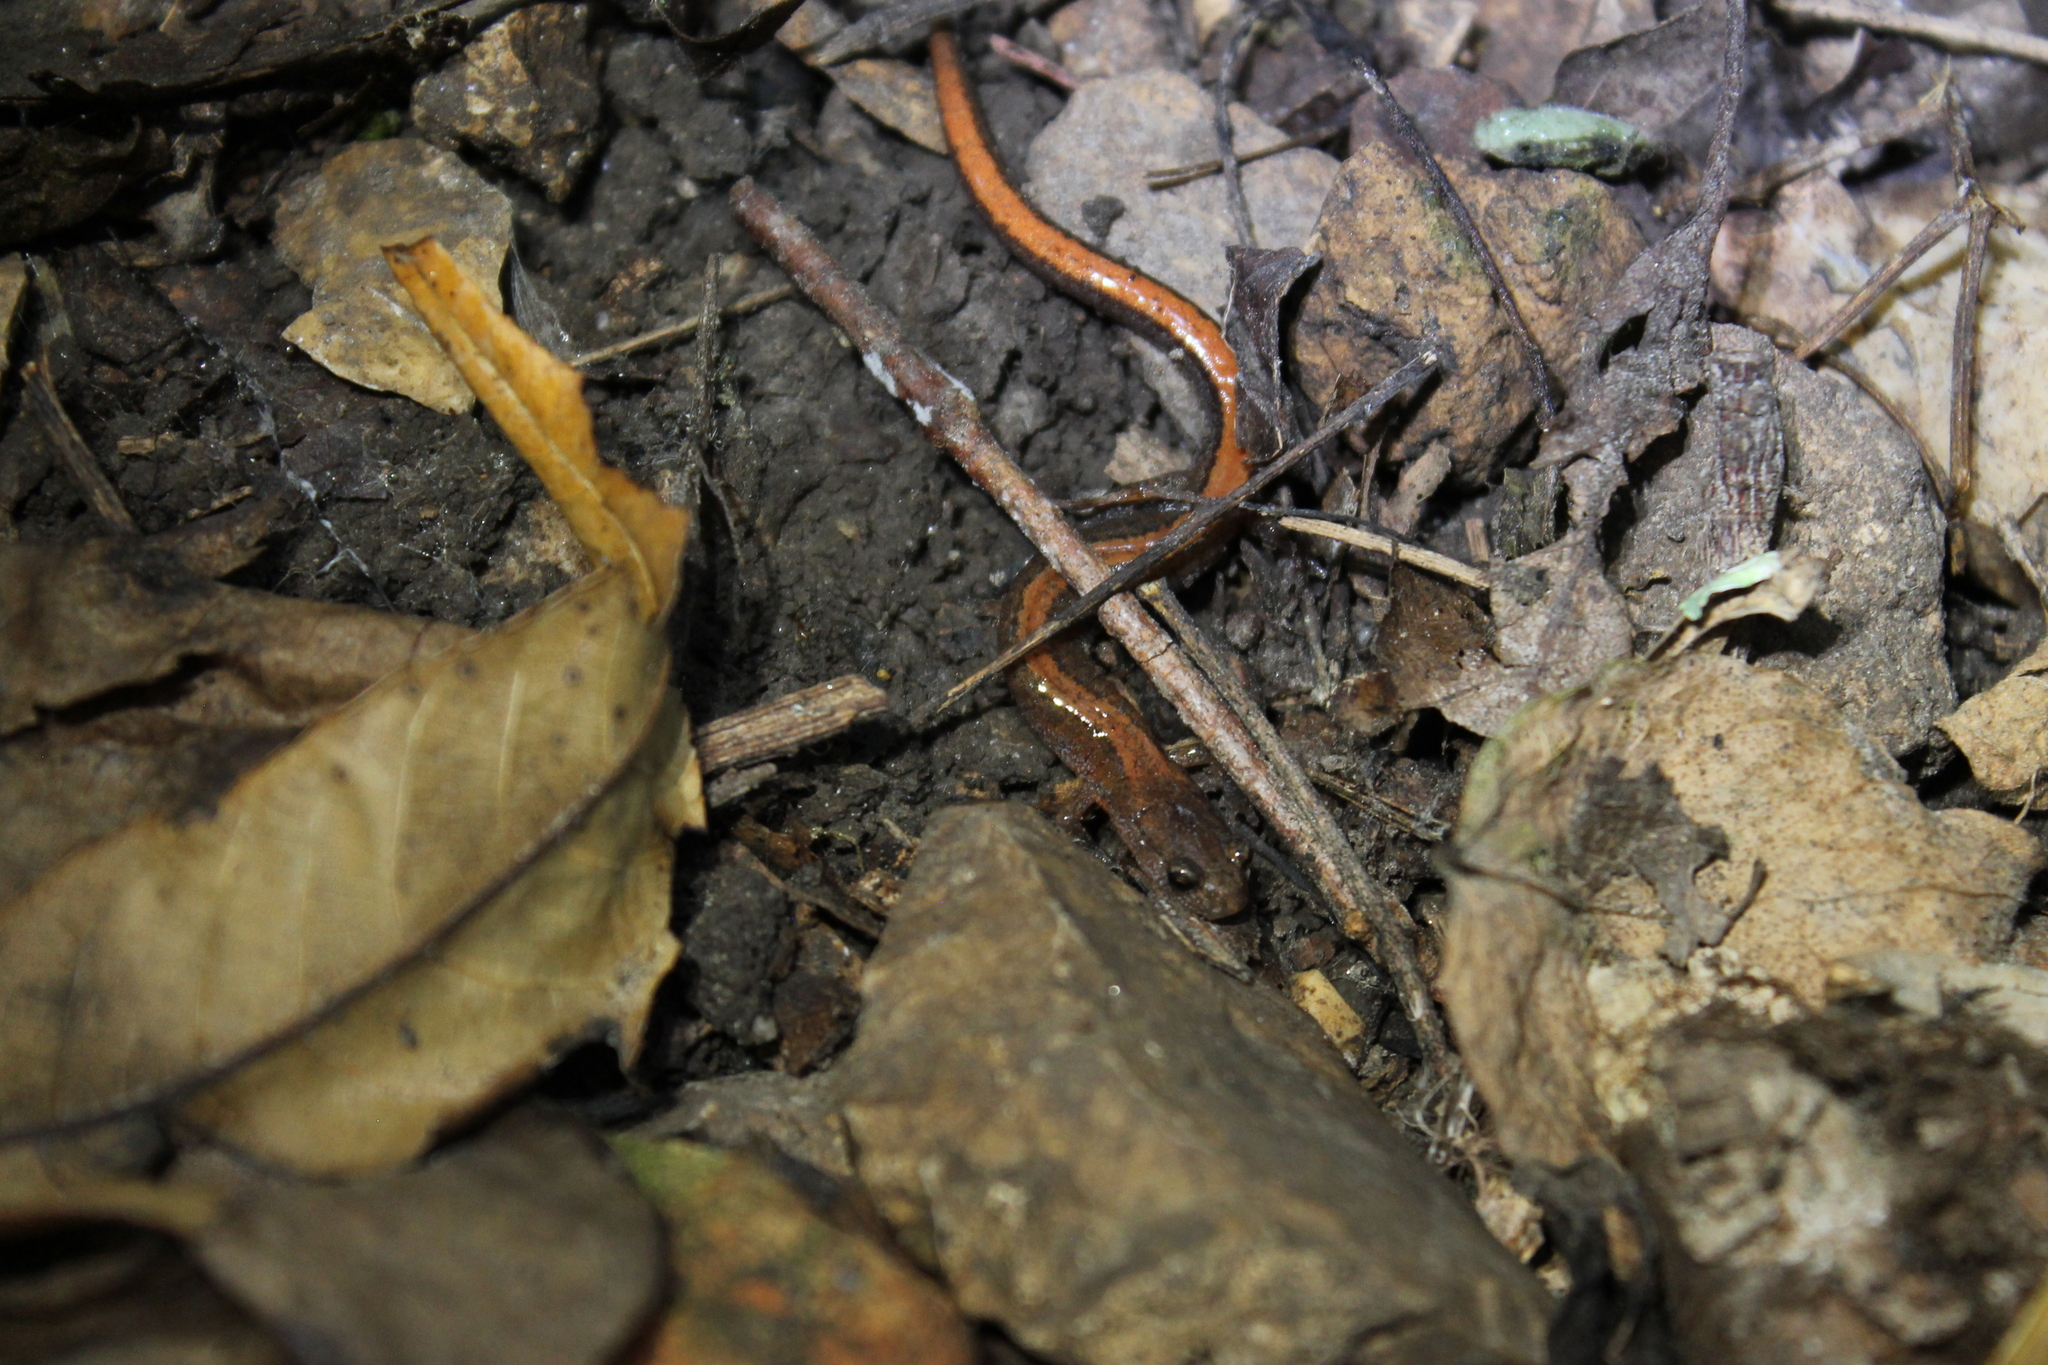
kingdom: Animalia
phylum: Chordata
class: Amphibia
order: Caudata
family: Plethodontidae
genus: Plethodon
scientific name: Plethodon dorsalis
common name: Northern zigzag salamander
